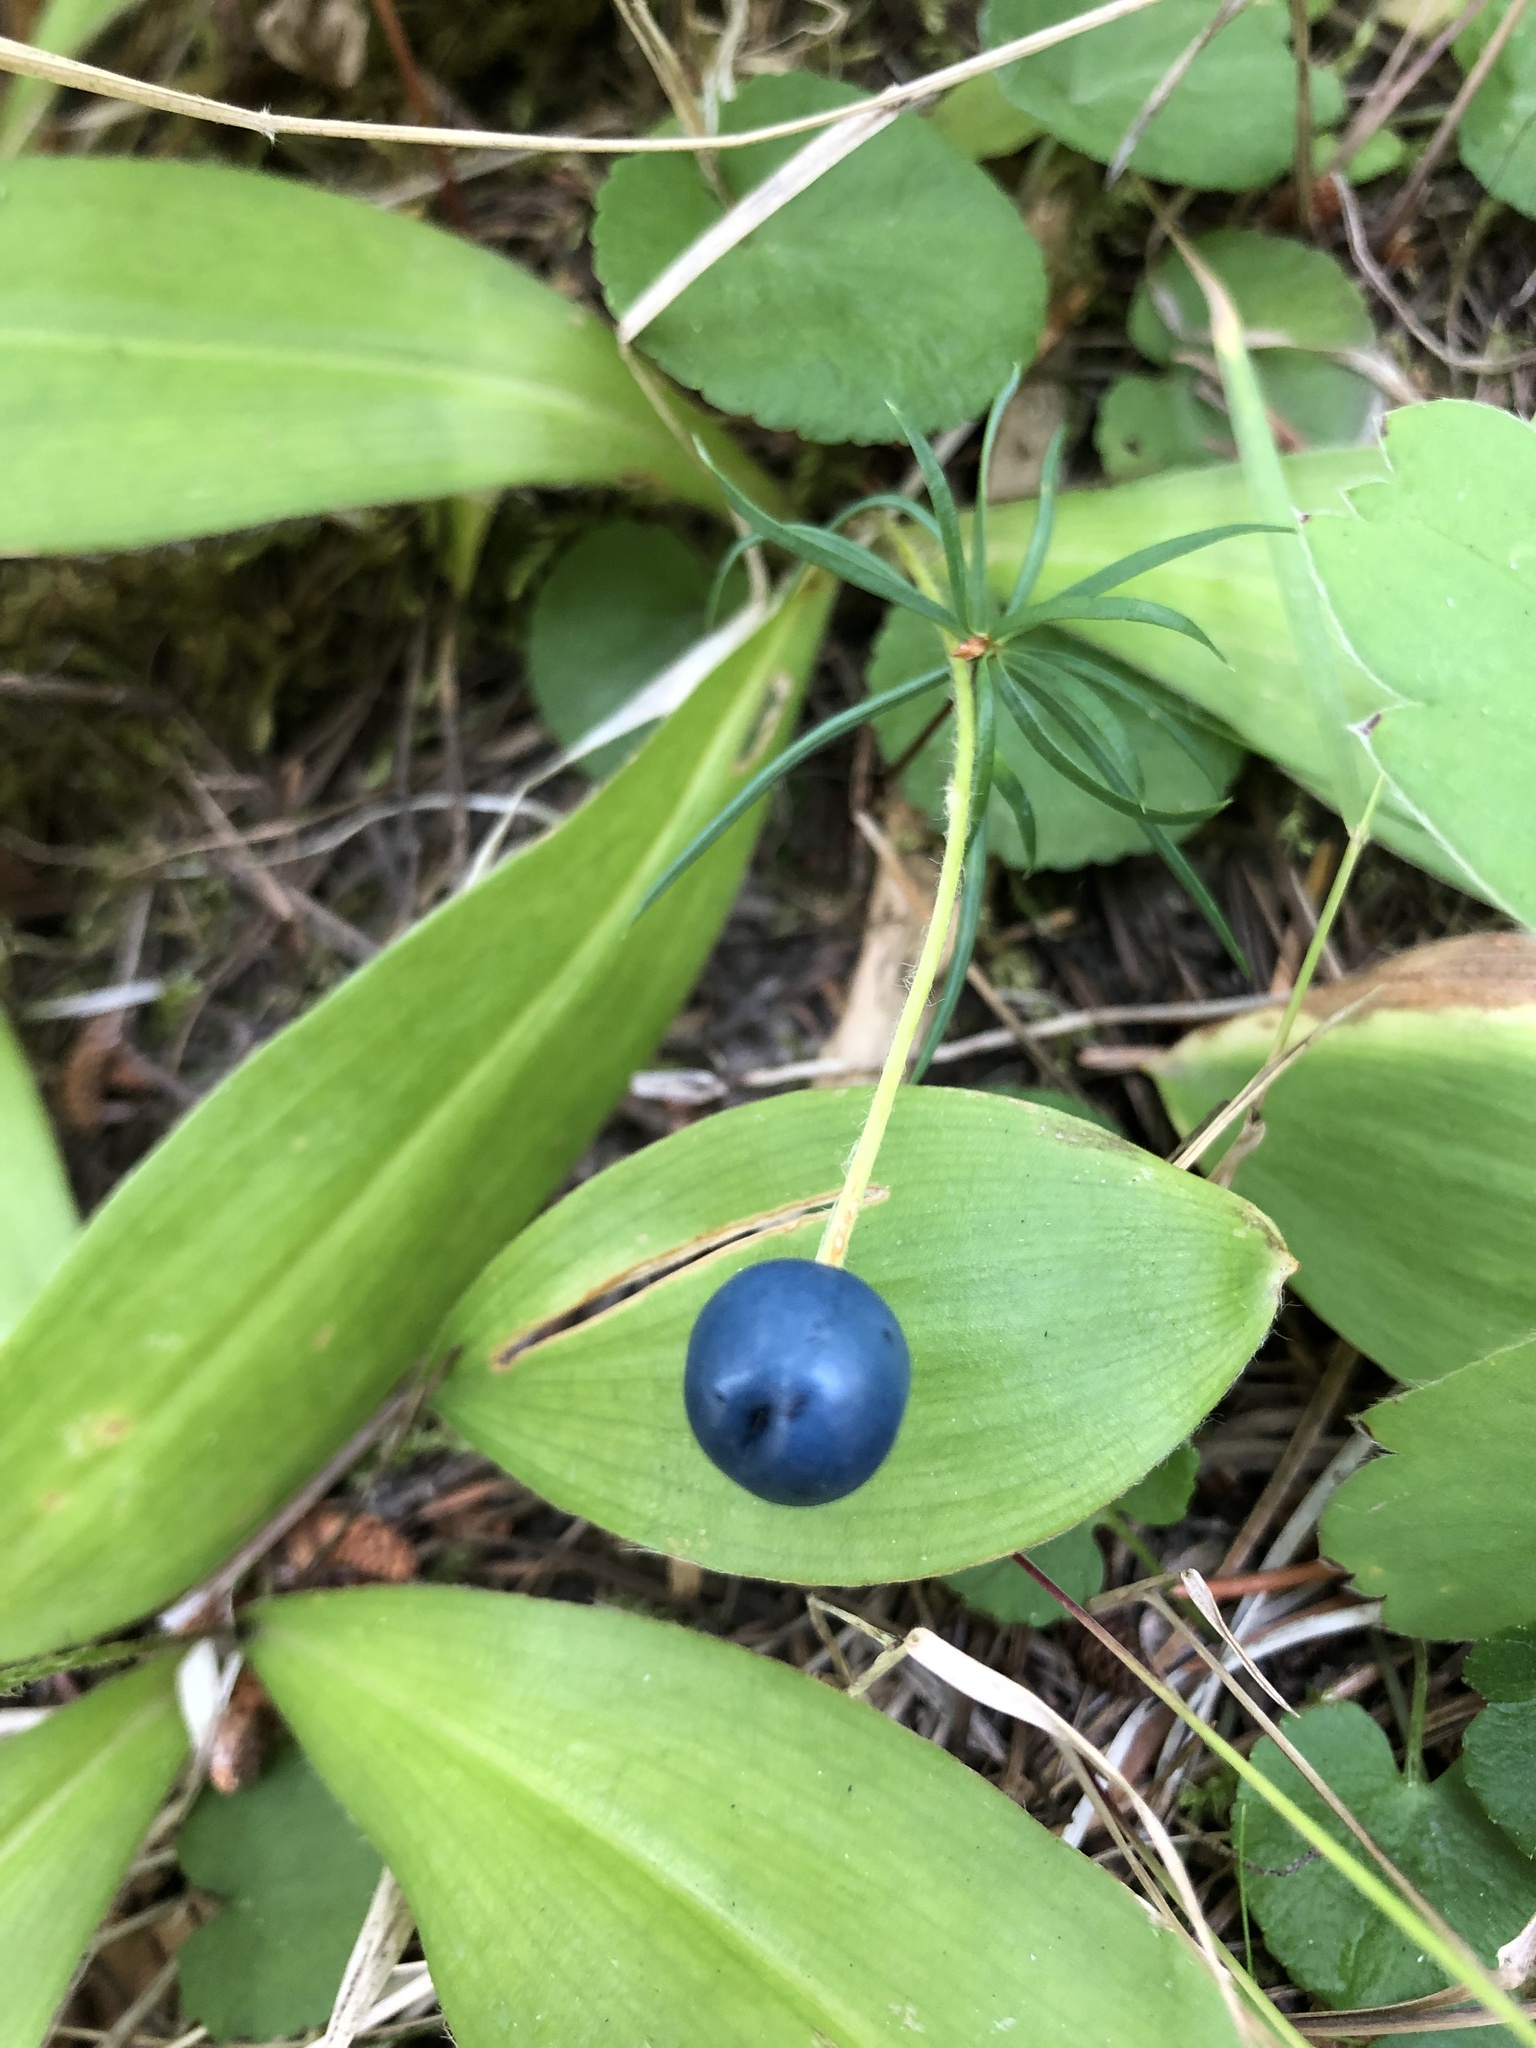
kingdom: Plantae
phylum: Tracheophyta
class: Liliopsida
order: Liliales
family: Liliaceae
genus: Clintonia
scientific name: Clintonia uniflora
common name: Queen's cup
